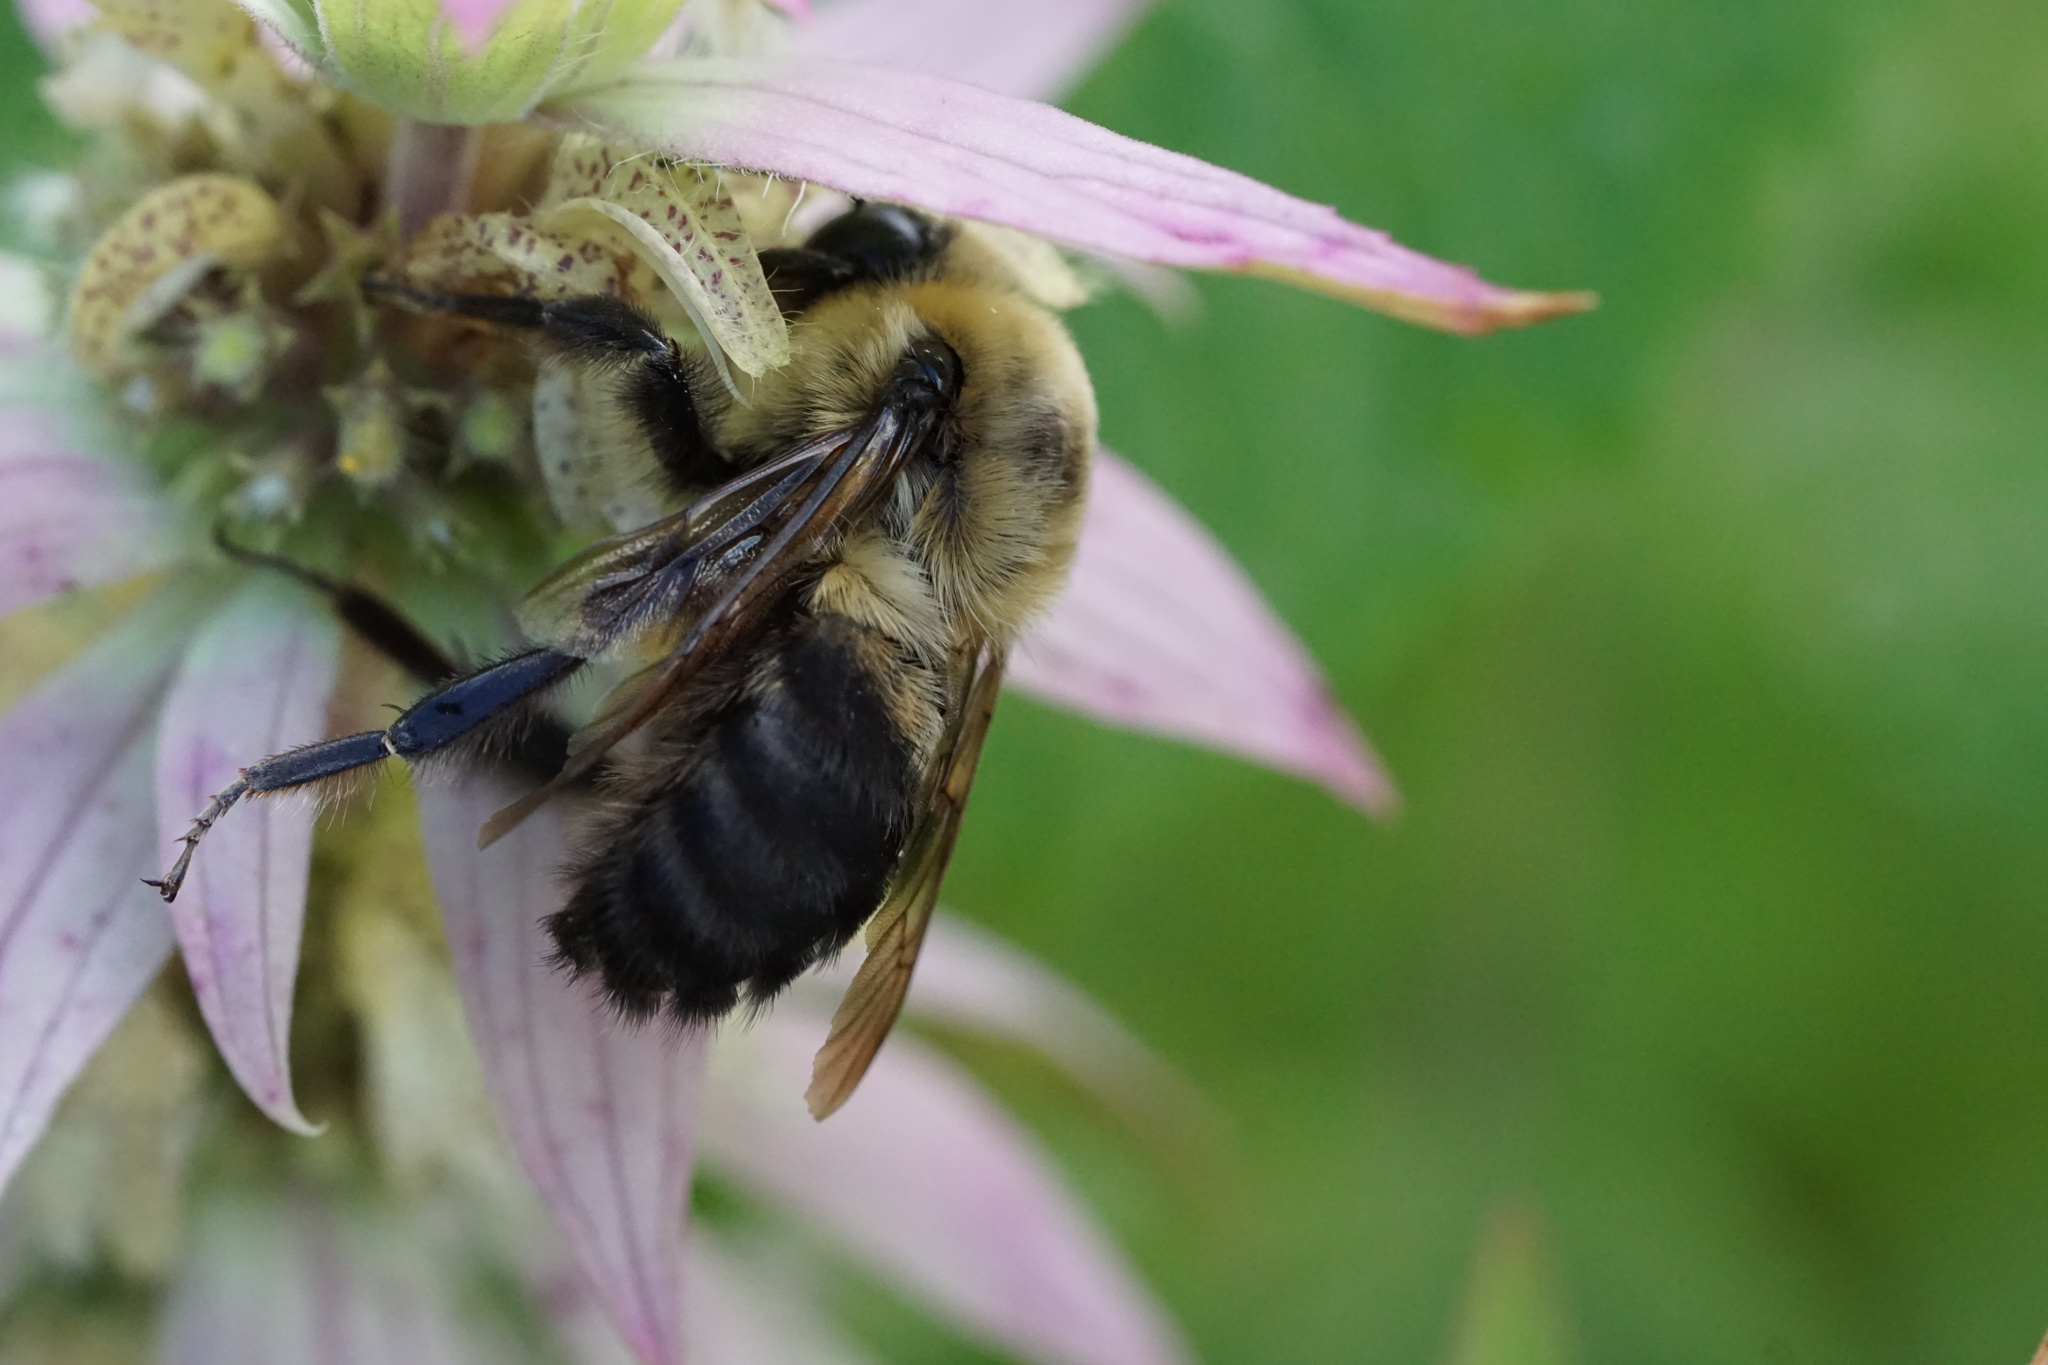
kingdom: Animalia
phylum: Arthropoda
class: Insecta
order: Hymenoptera
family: Apidae
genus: Bombus
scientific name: Bombus griseocollis
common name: Brown-belted bumble bee
